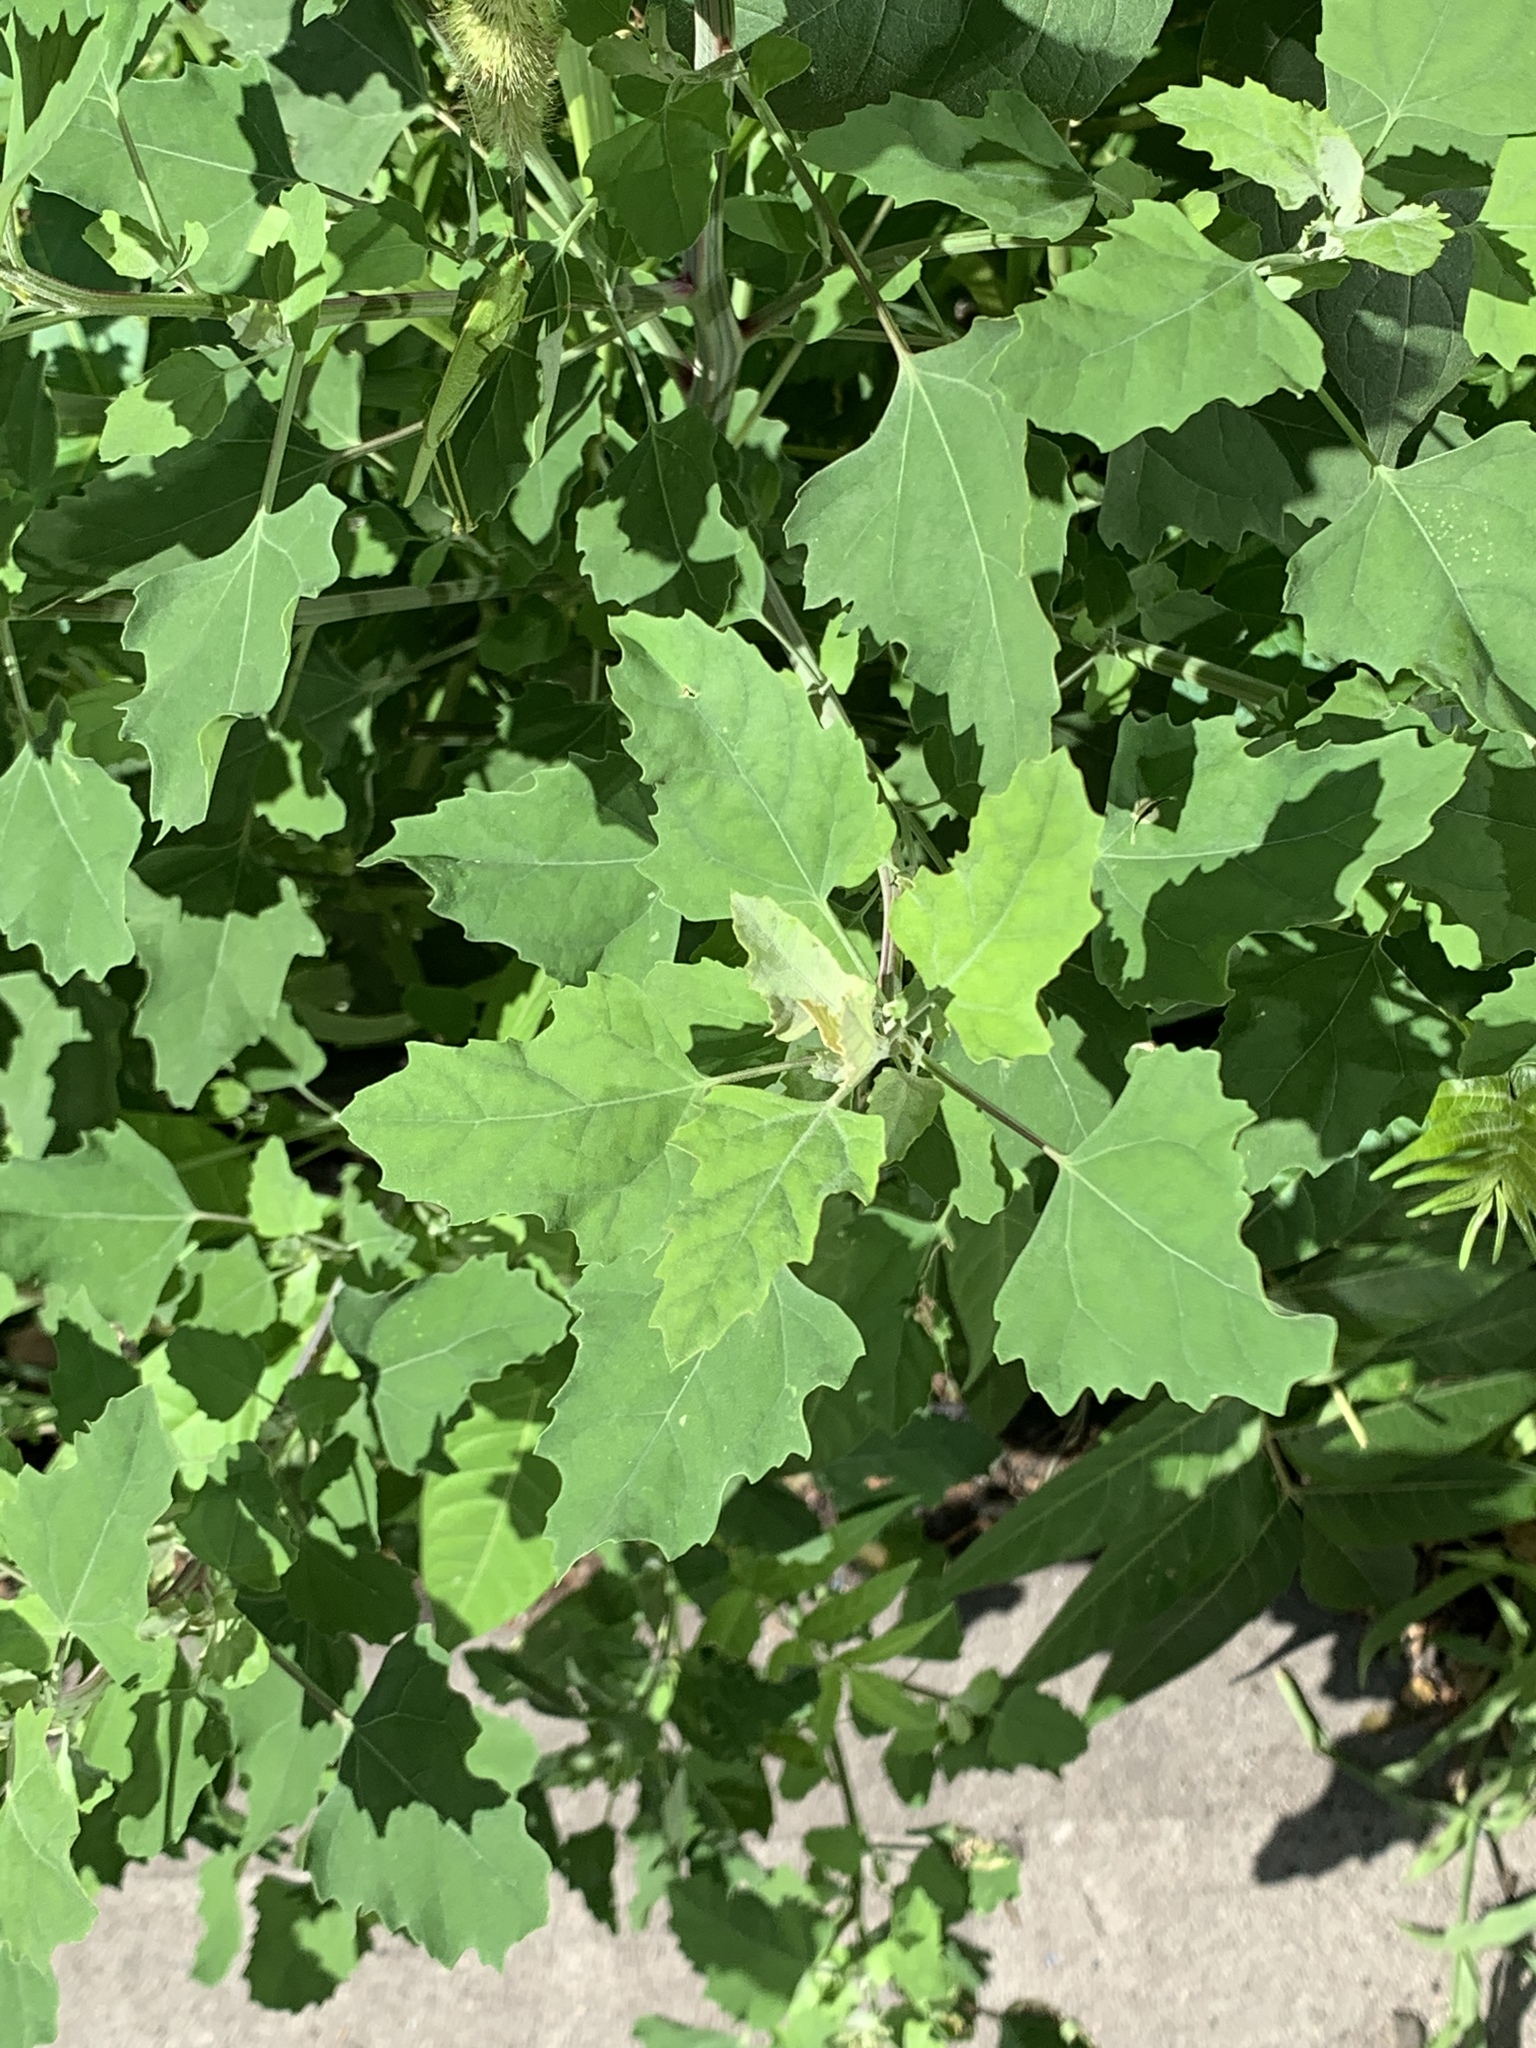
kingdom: Plantae
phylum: Tracheophyta
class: Magnoliopsida
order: Caryophyllales
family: Amaranthaceae
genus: Chenopodium
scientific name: Chenopodium album
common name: Fat-hen
